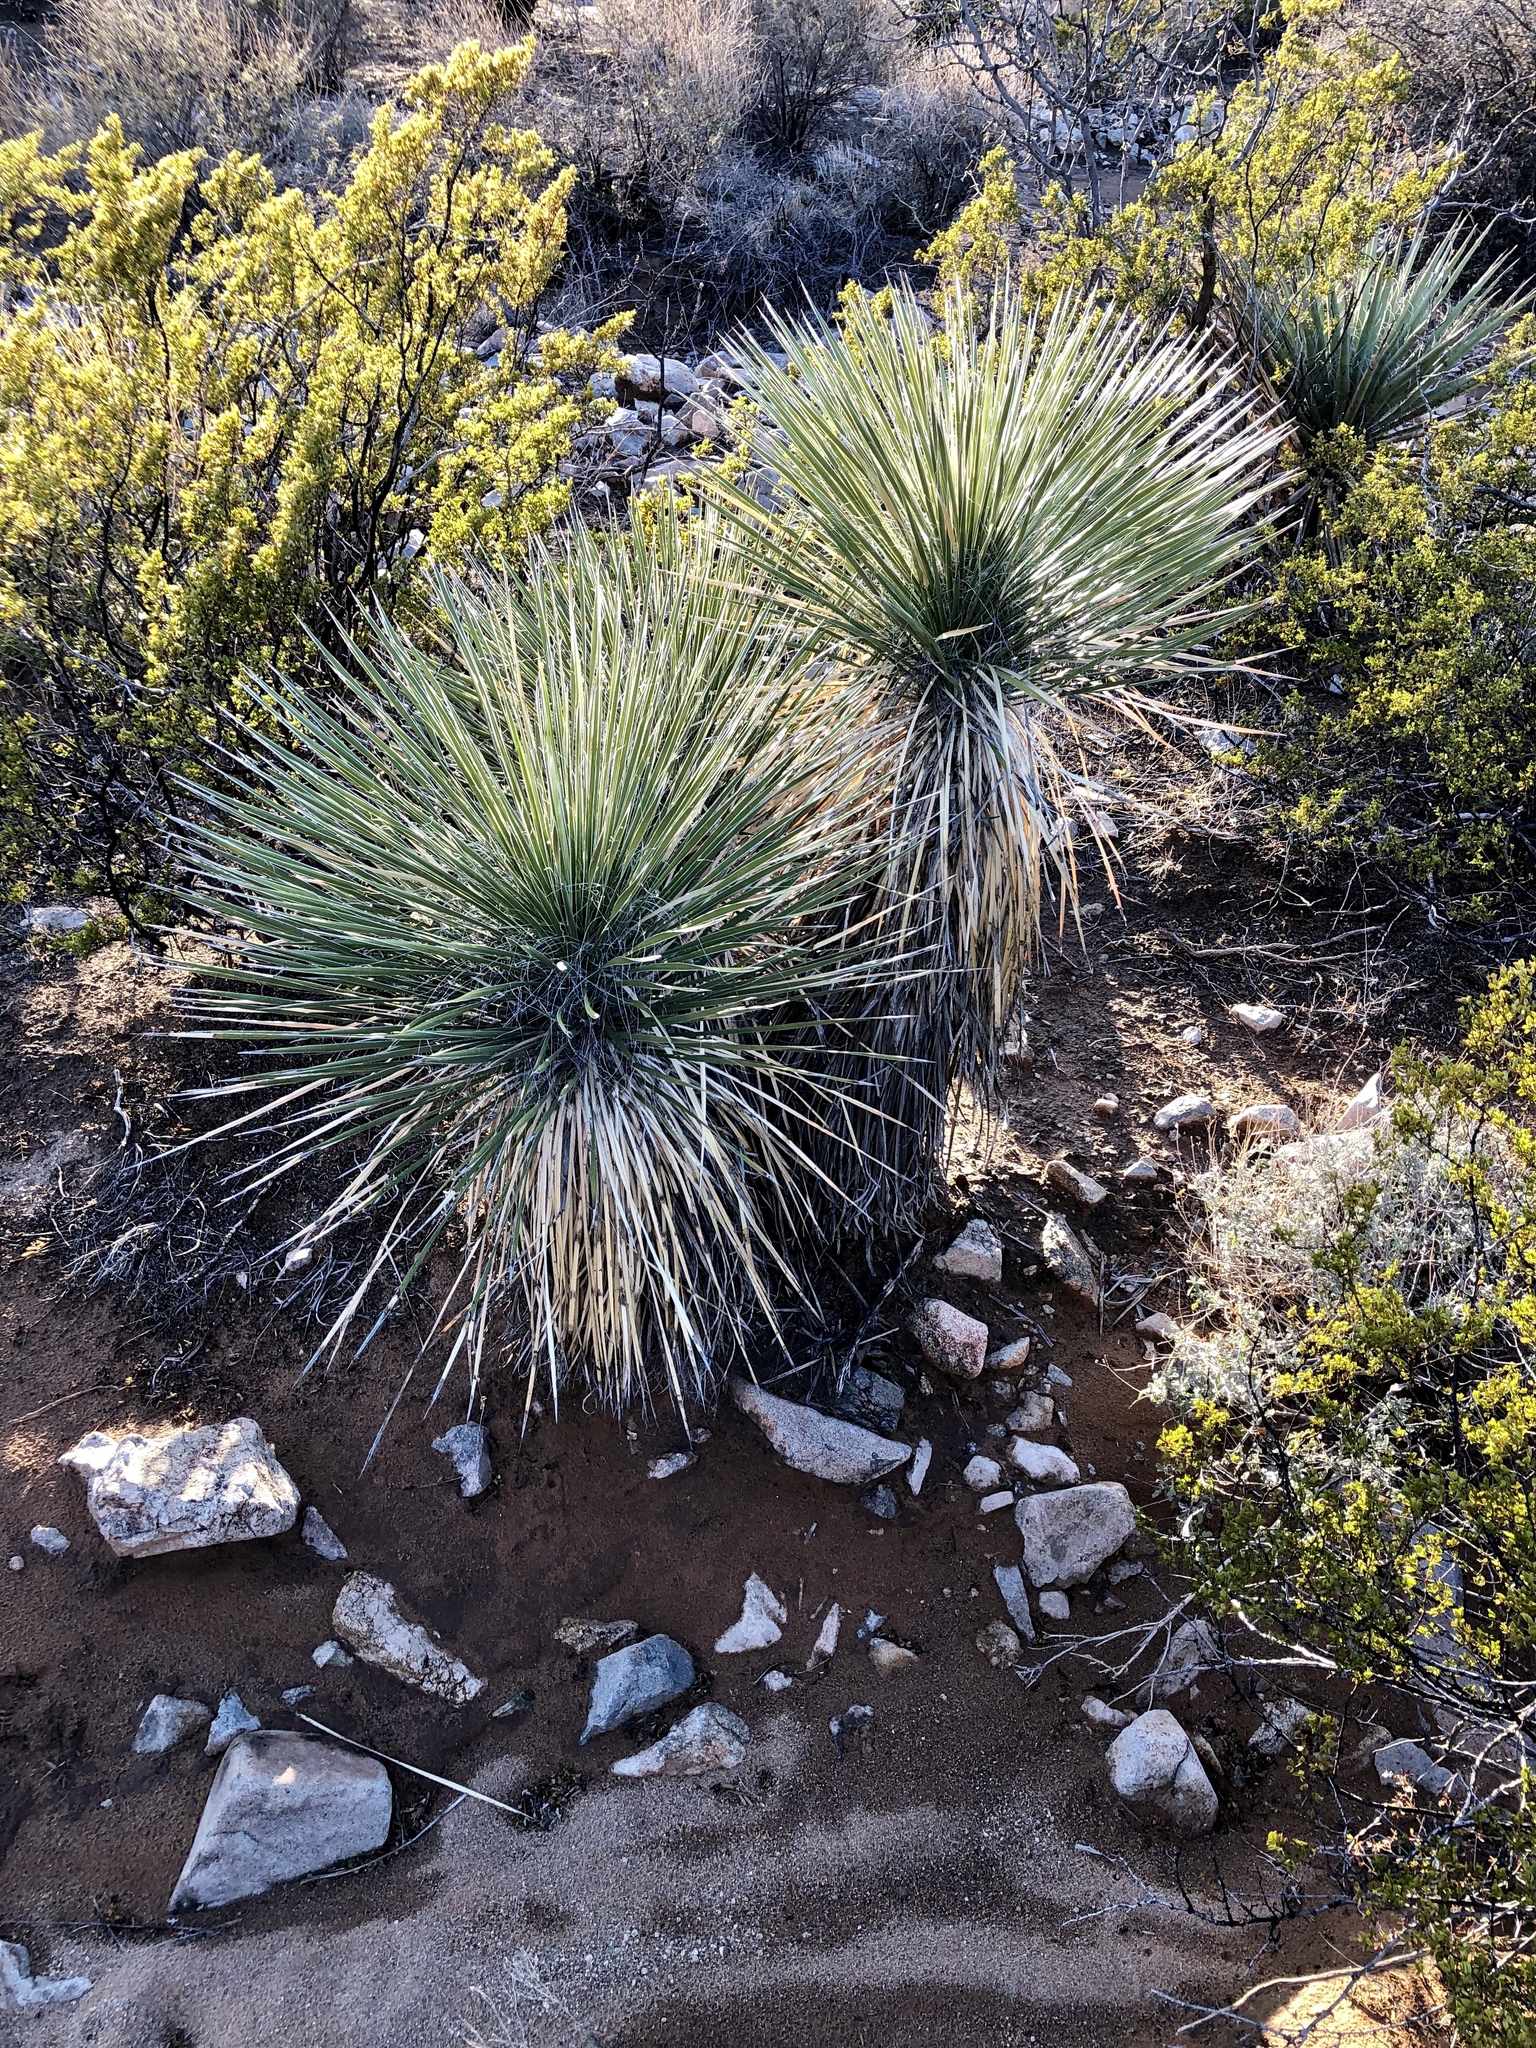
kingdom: Plantae
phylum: Tracheophyta
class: Liliopsida
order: Asparagales
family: Asparagaceae
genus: Yucca
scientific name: Yucca elata
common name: Palmella
